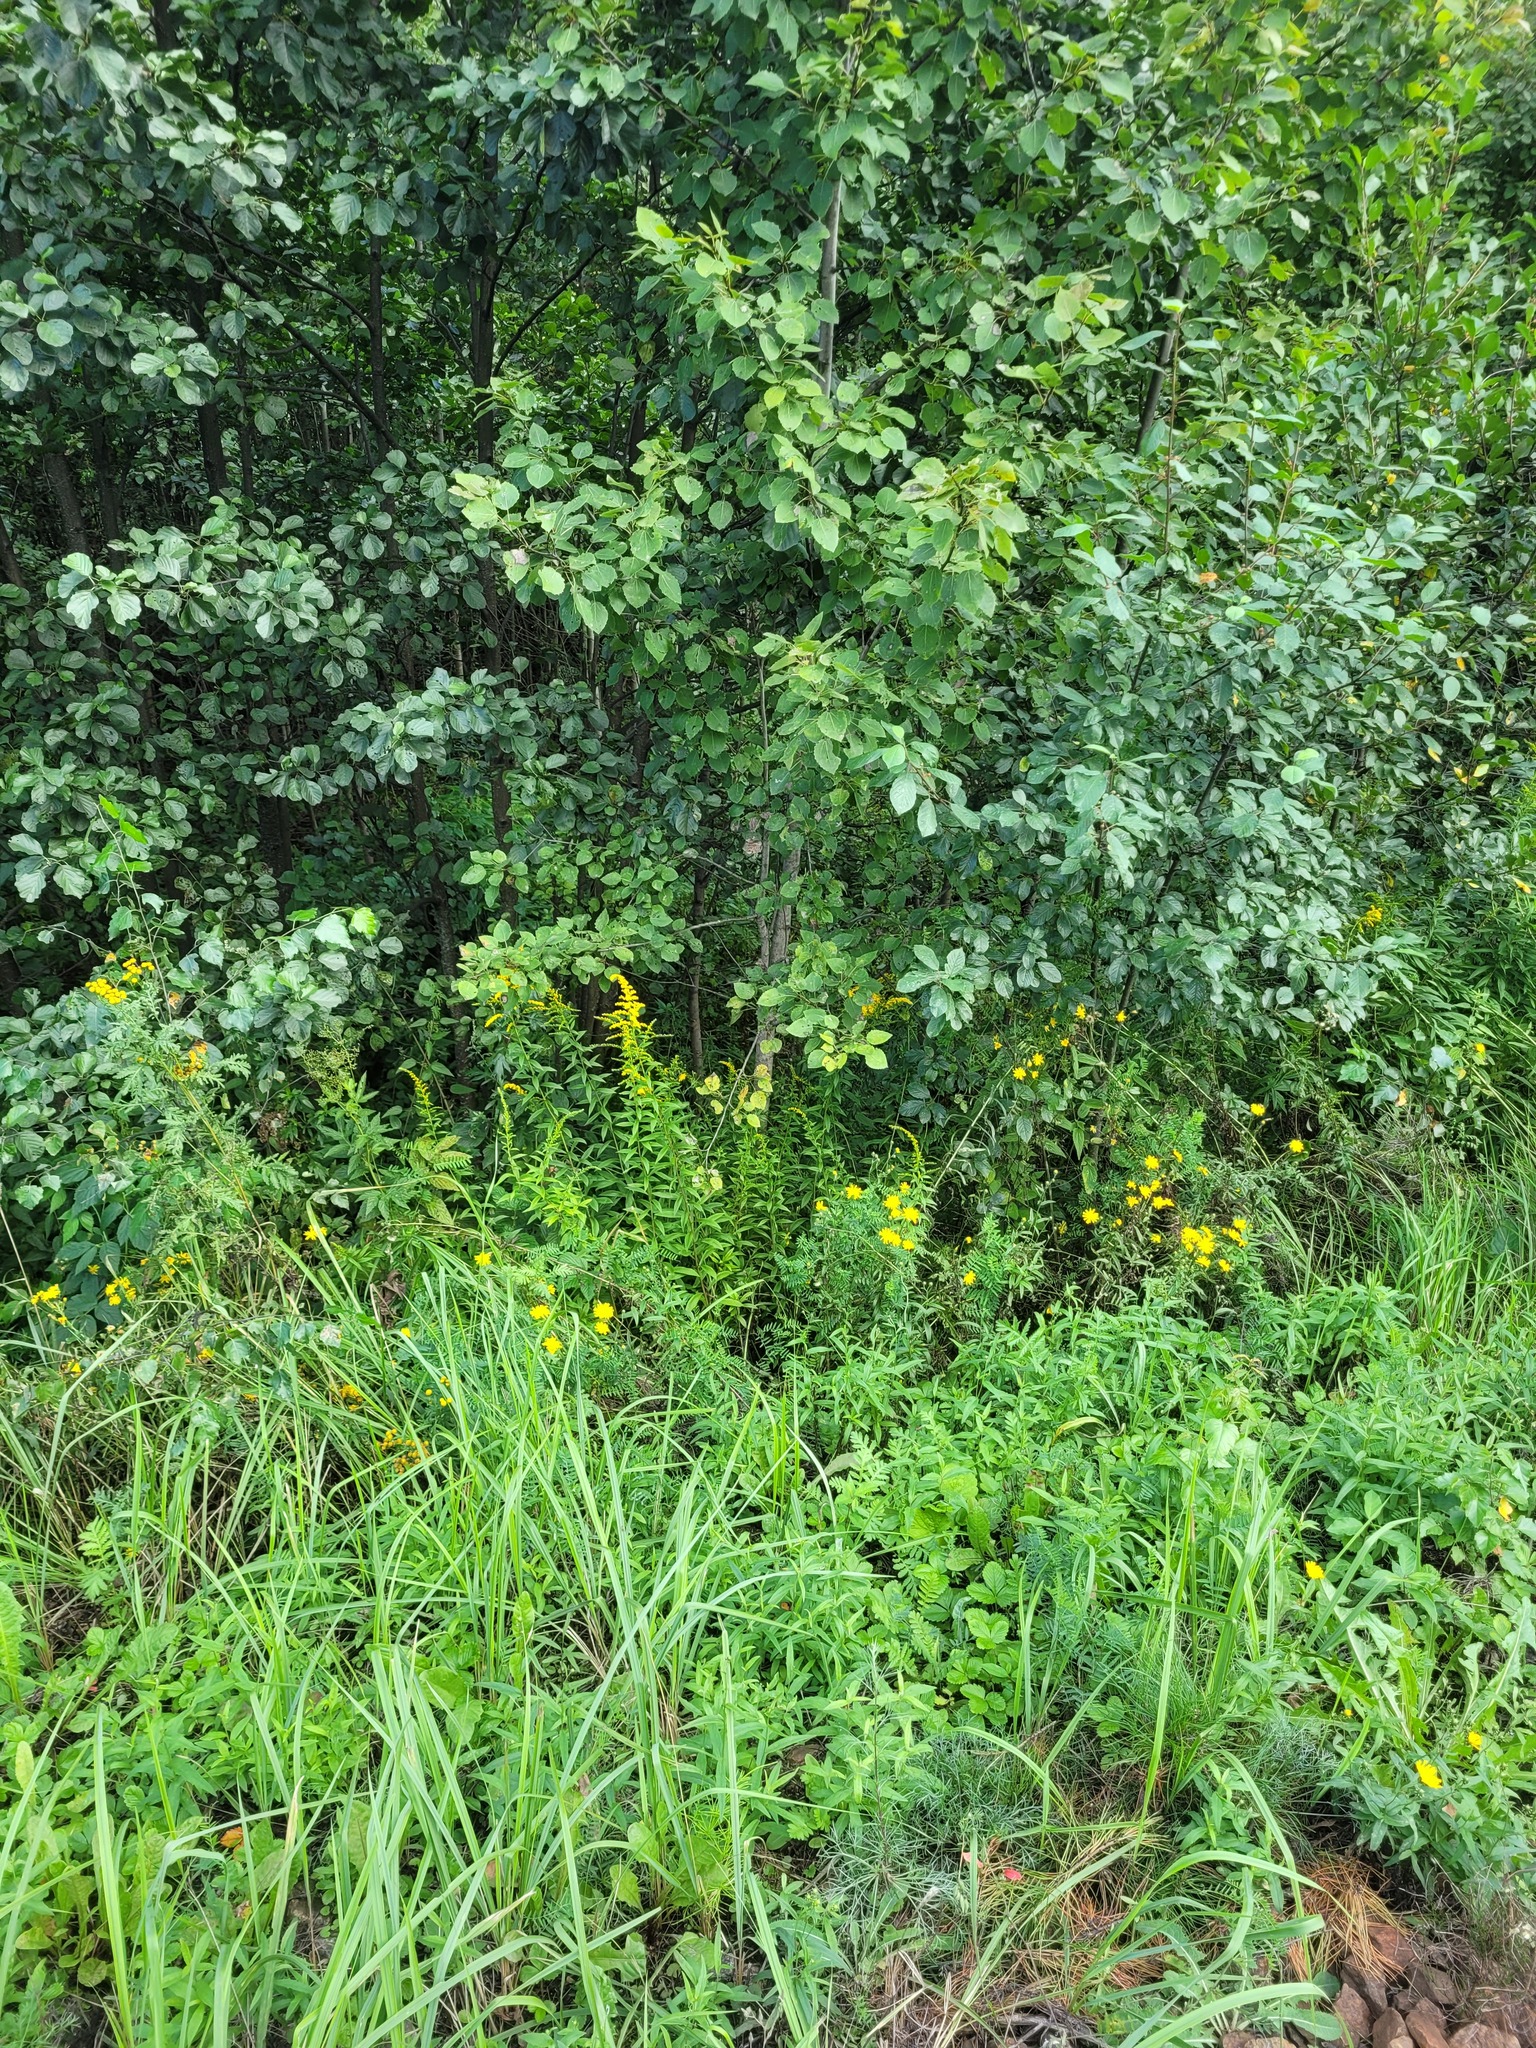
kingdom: Plantae
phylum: Tracheophyta
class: Magnoliopsida
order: Asterales
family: Asteraceae
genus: Solidago
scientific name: Solidago gigantea
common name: Giant goldenrod
